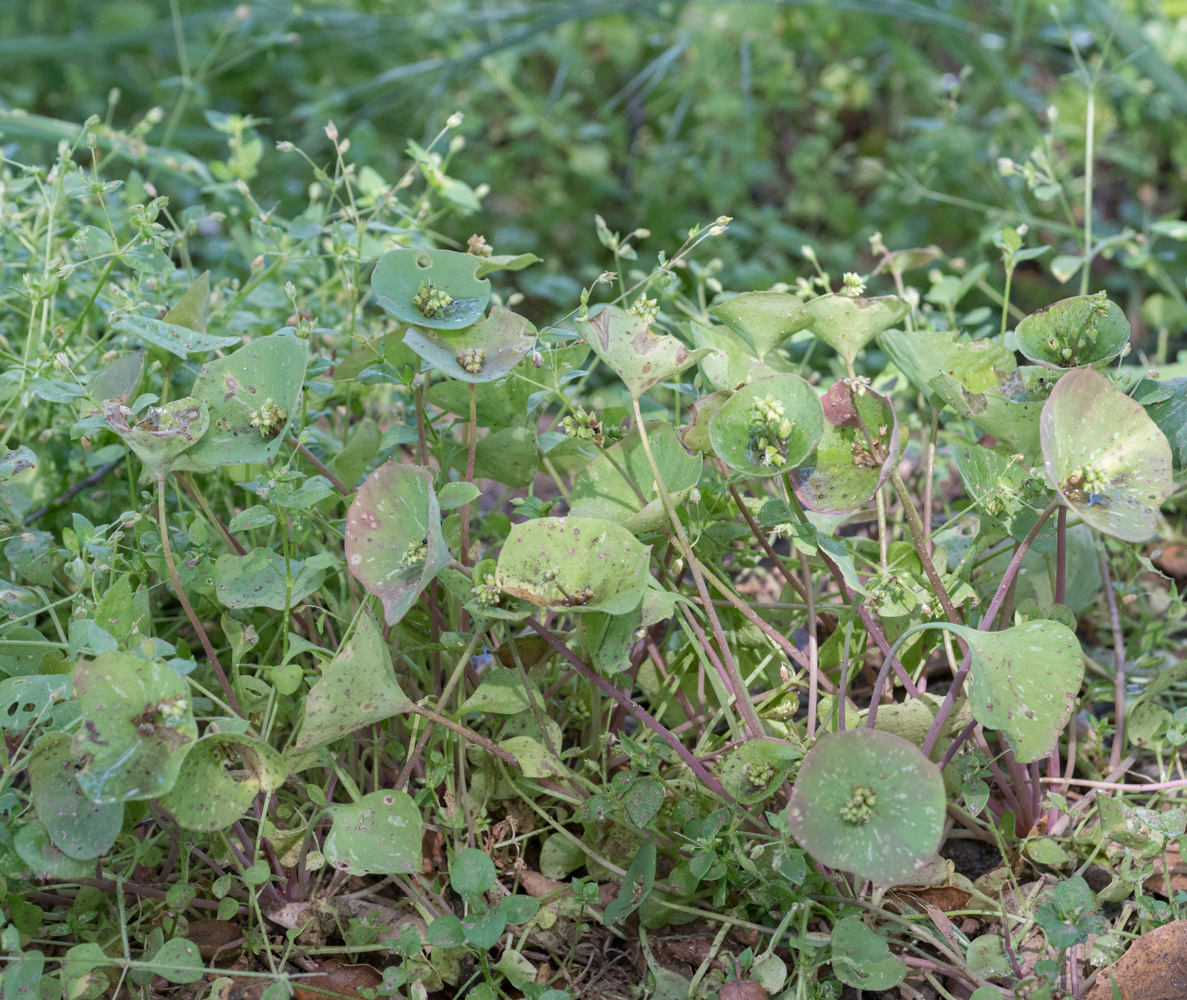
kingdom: Plantae
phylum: Tracheophyta
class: Magnoliopsida
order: Caryophyllales
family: Montiaceae
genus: Claytonia
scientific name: Claytonia perfoliata
